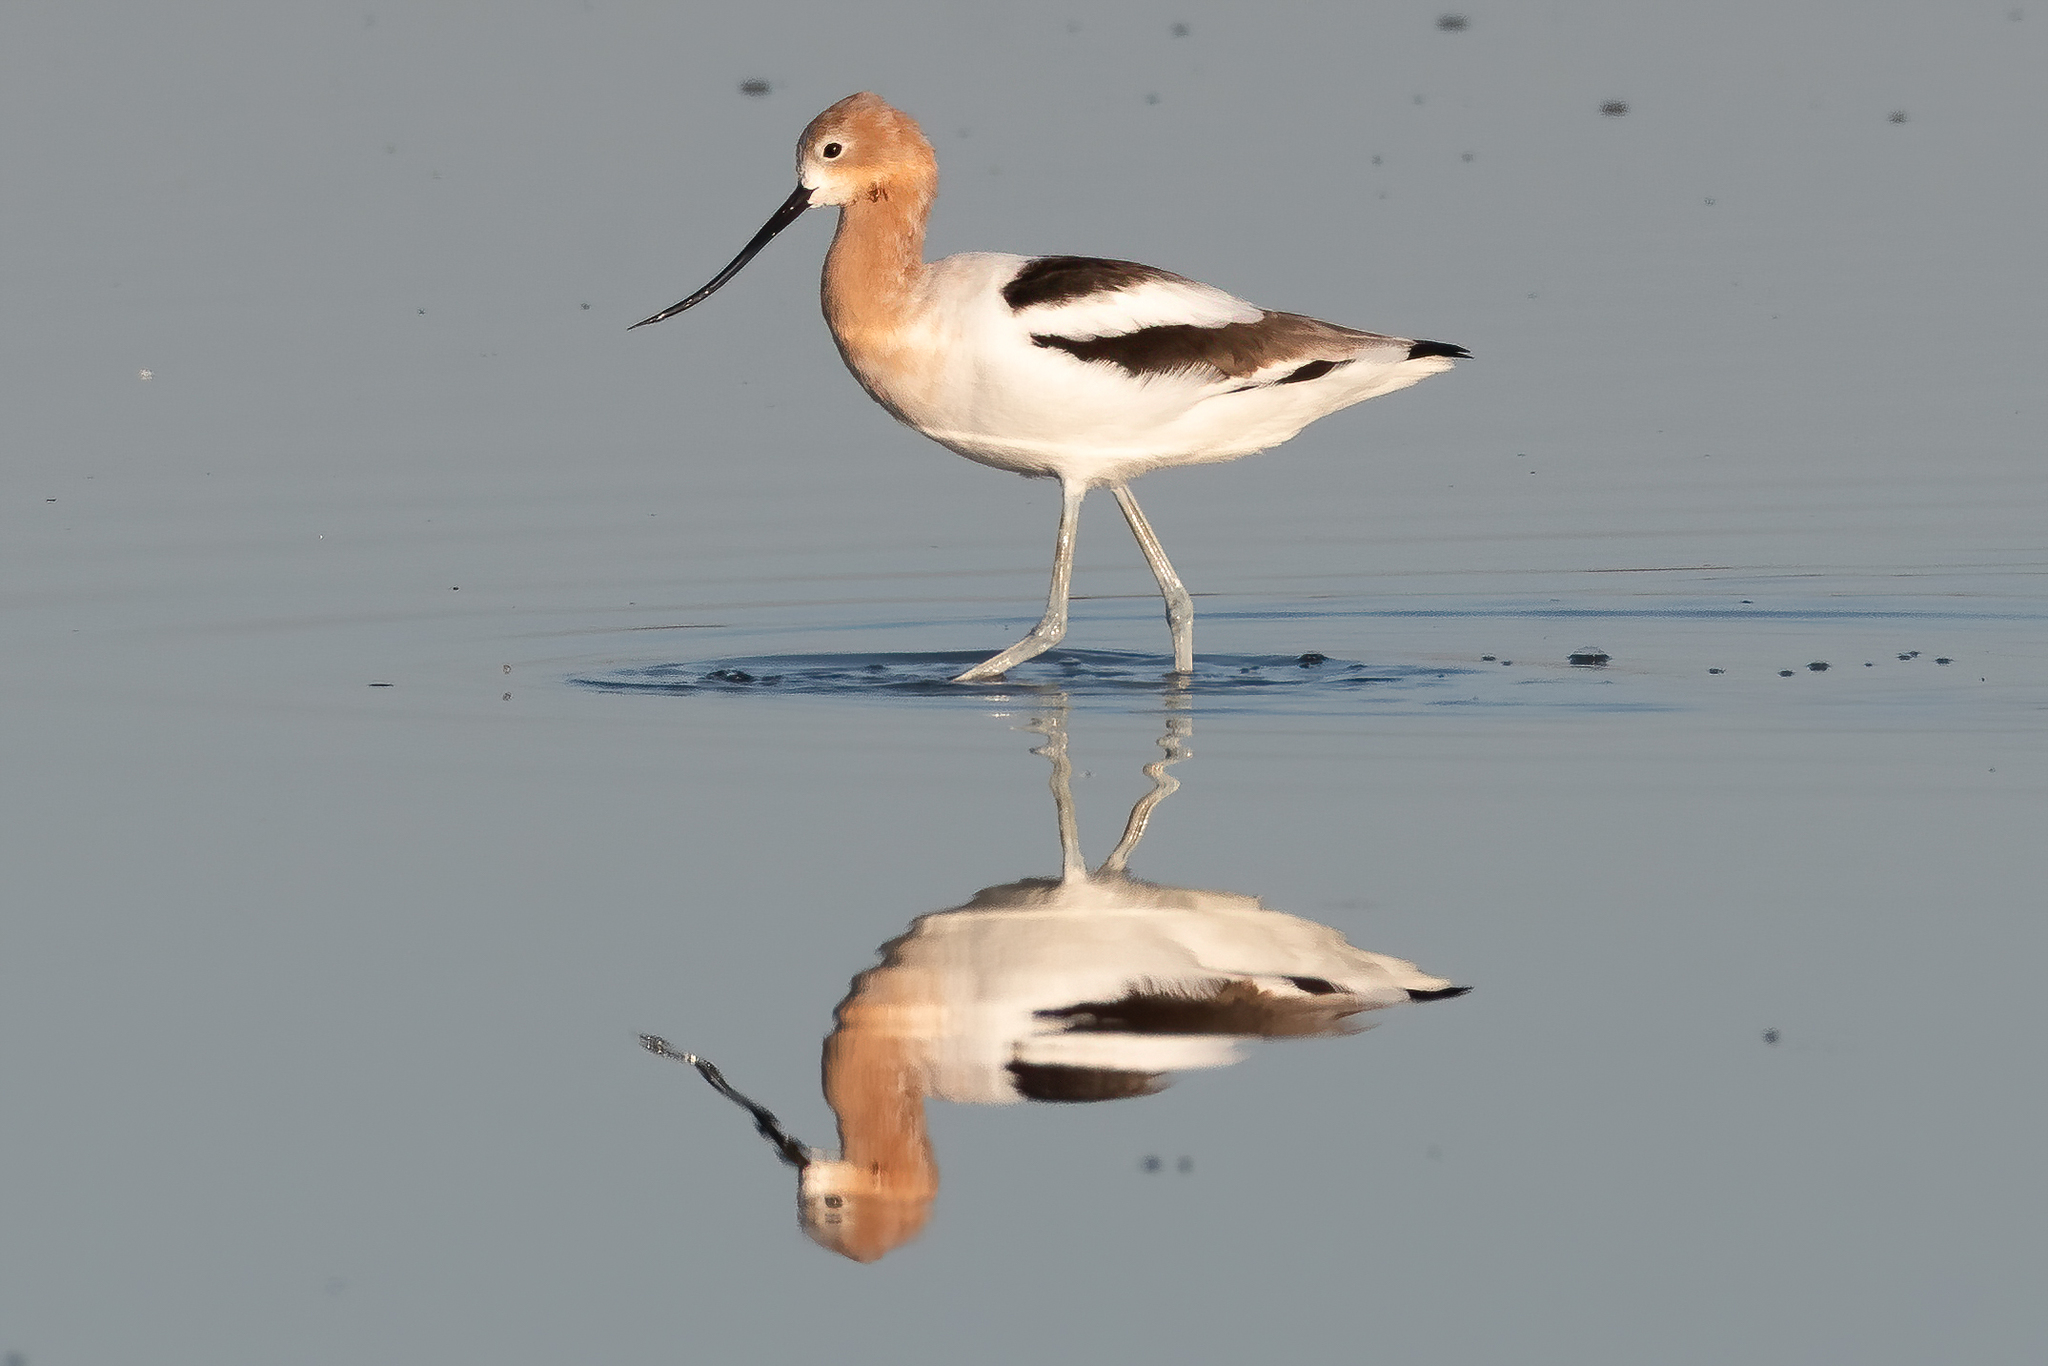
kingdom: Animalia
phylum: Chordata
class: Aves
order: Charadriiformes
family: Recurvirostridae
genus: Recurvirostra
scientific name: Recurvirostra americana
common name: American avocet
